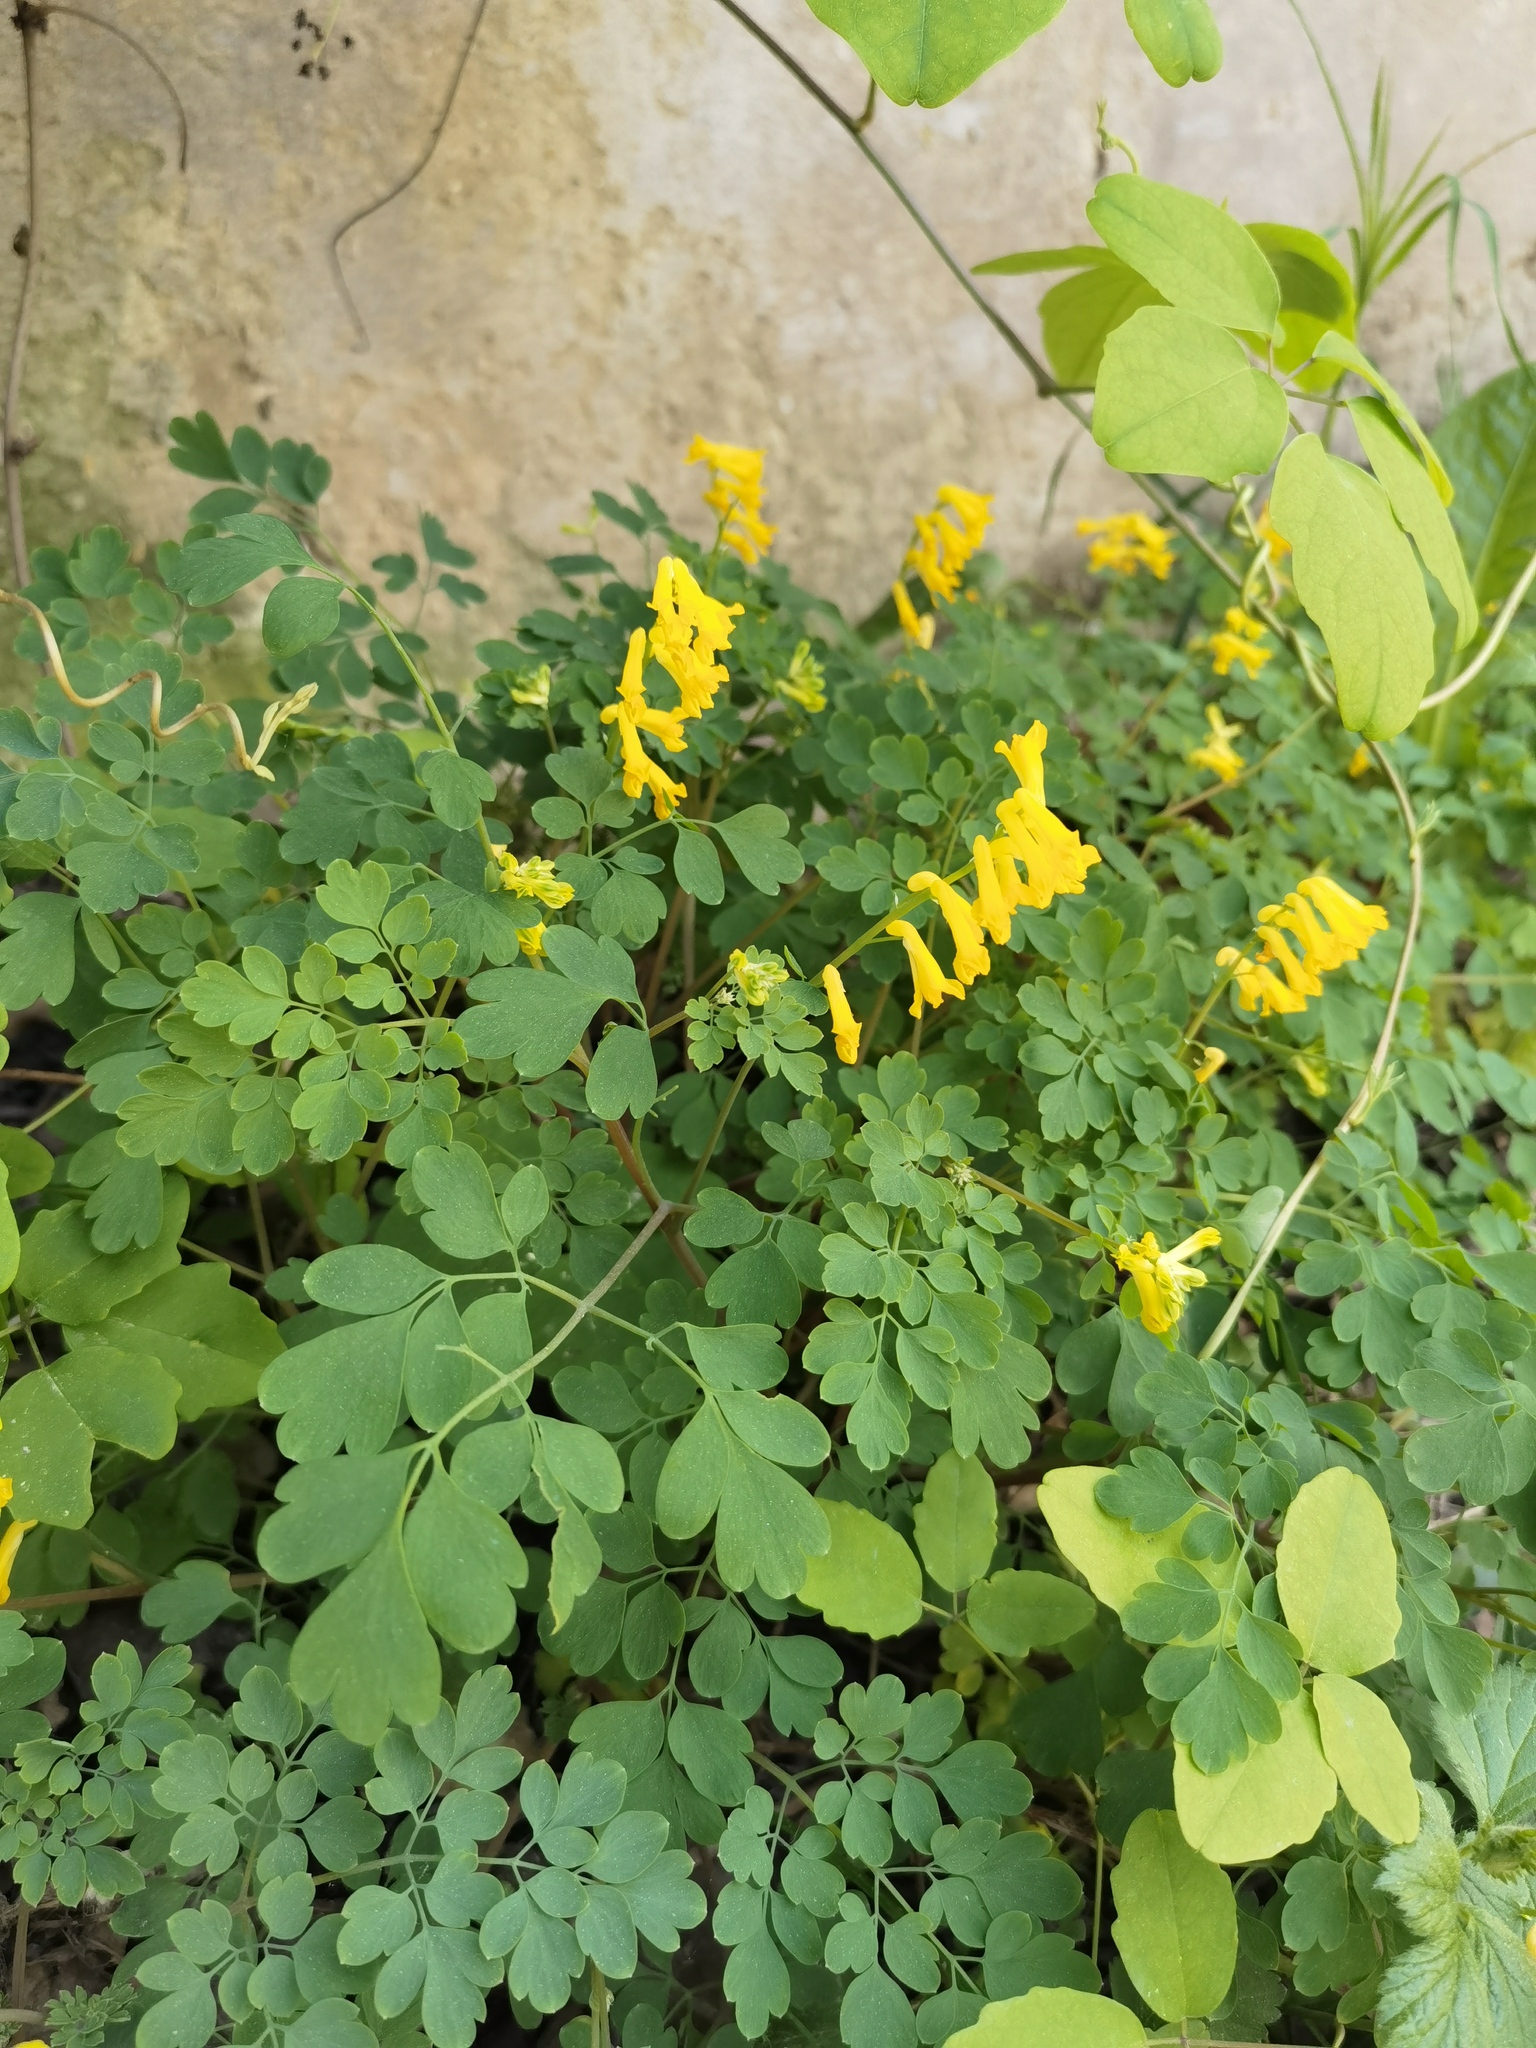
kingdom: Plantae
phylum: Tracheophyta
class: Magnoliopsida
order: Ranunculales
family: Papaveraceae
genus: Pseudofumaria
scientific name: Pseudofumaria lutea
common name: Yellow corydalis
